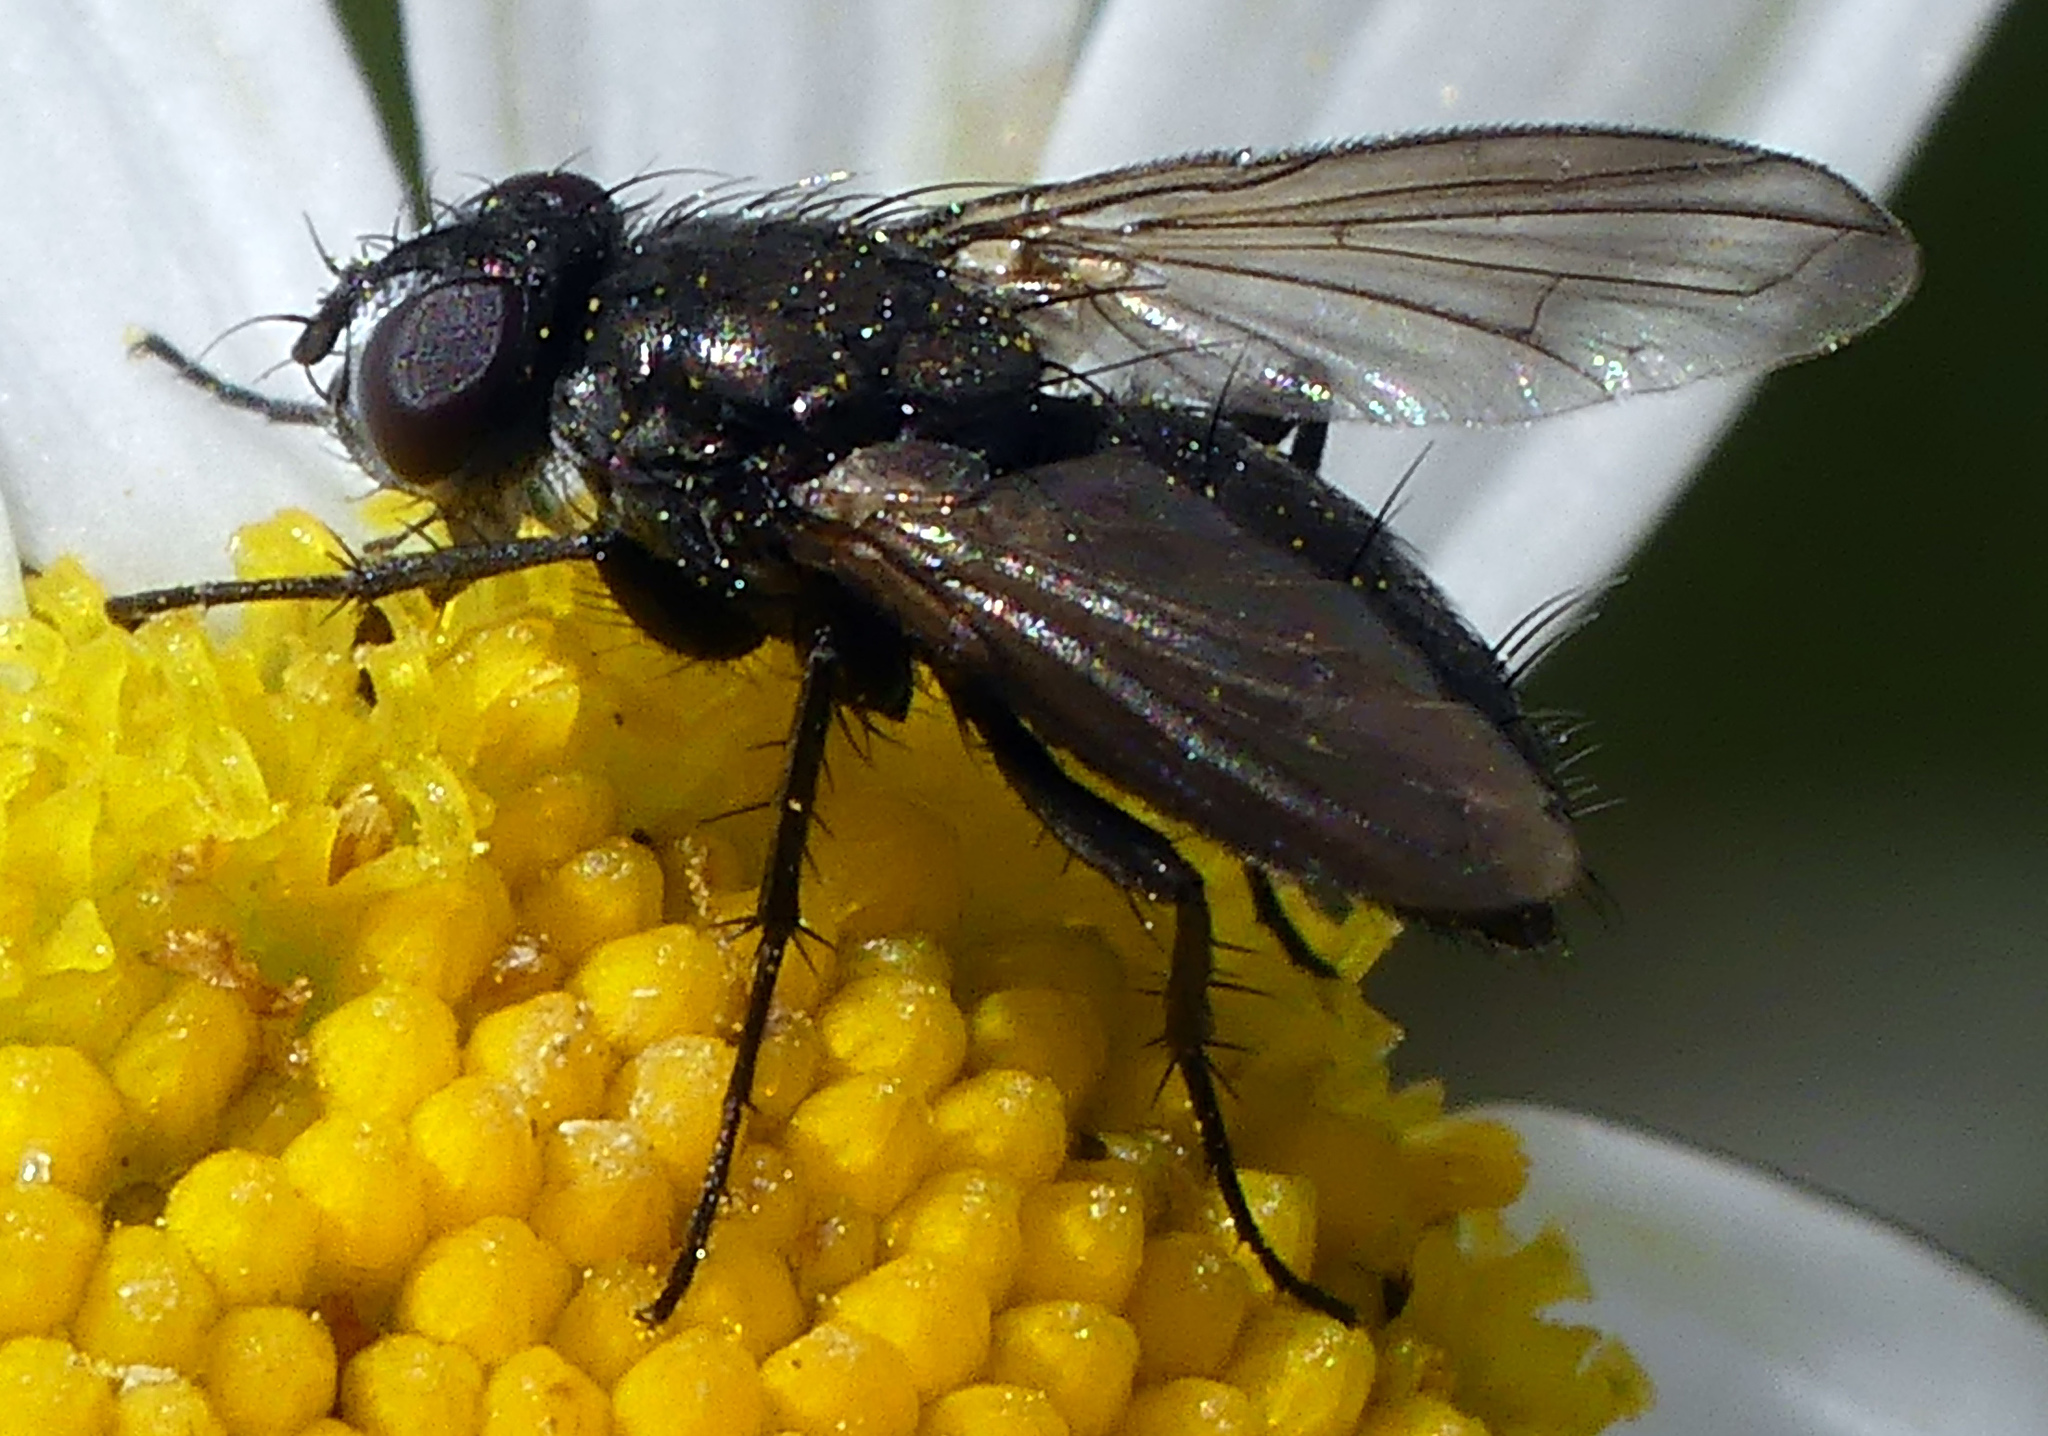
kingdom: Animalia
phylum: Arthropoda
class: Insecta
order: Diptera
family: Calliphoridae
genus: Rhinophora
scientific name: Rhinophora lepida
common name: Pouting woodlouse-fly
